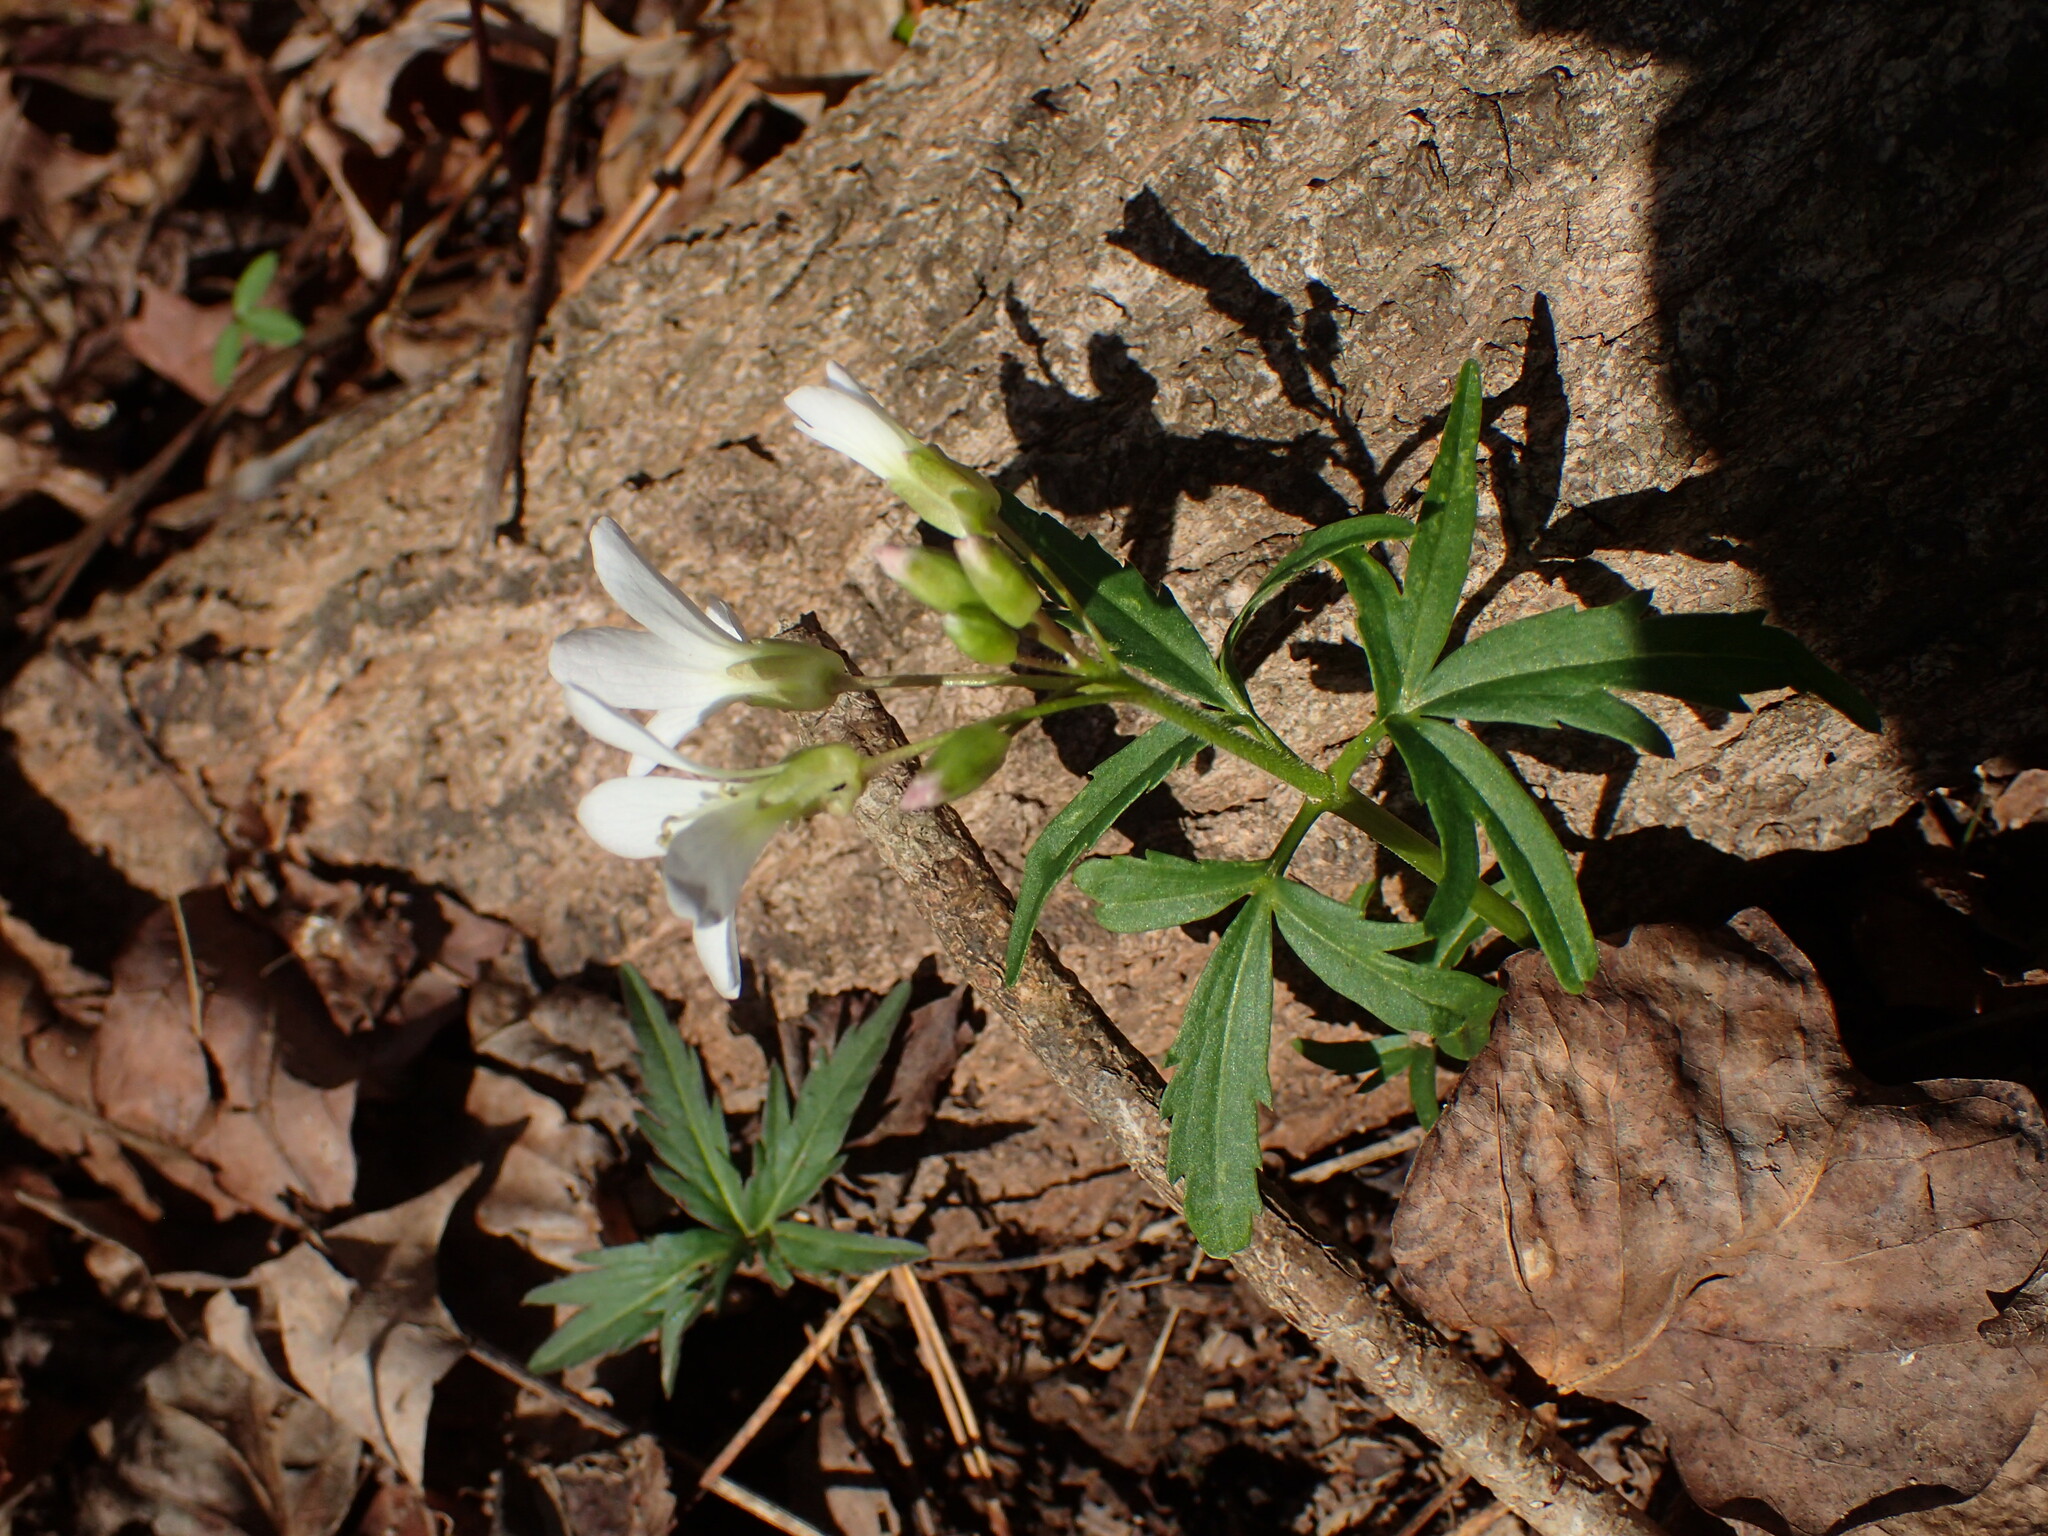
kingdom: Plantae
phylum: Tracheophyta
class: Magnoliopsida
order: Brassicales
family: Brassicaceae
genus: Cardamine
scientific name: Cardamine concatenata
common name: Cut-leaf toothcup
